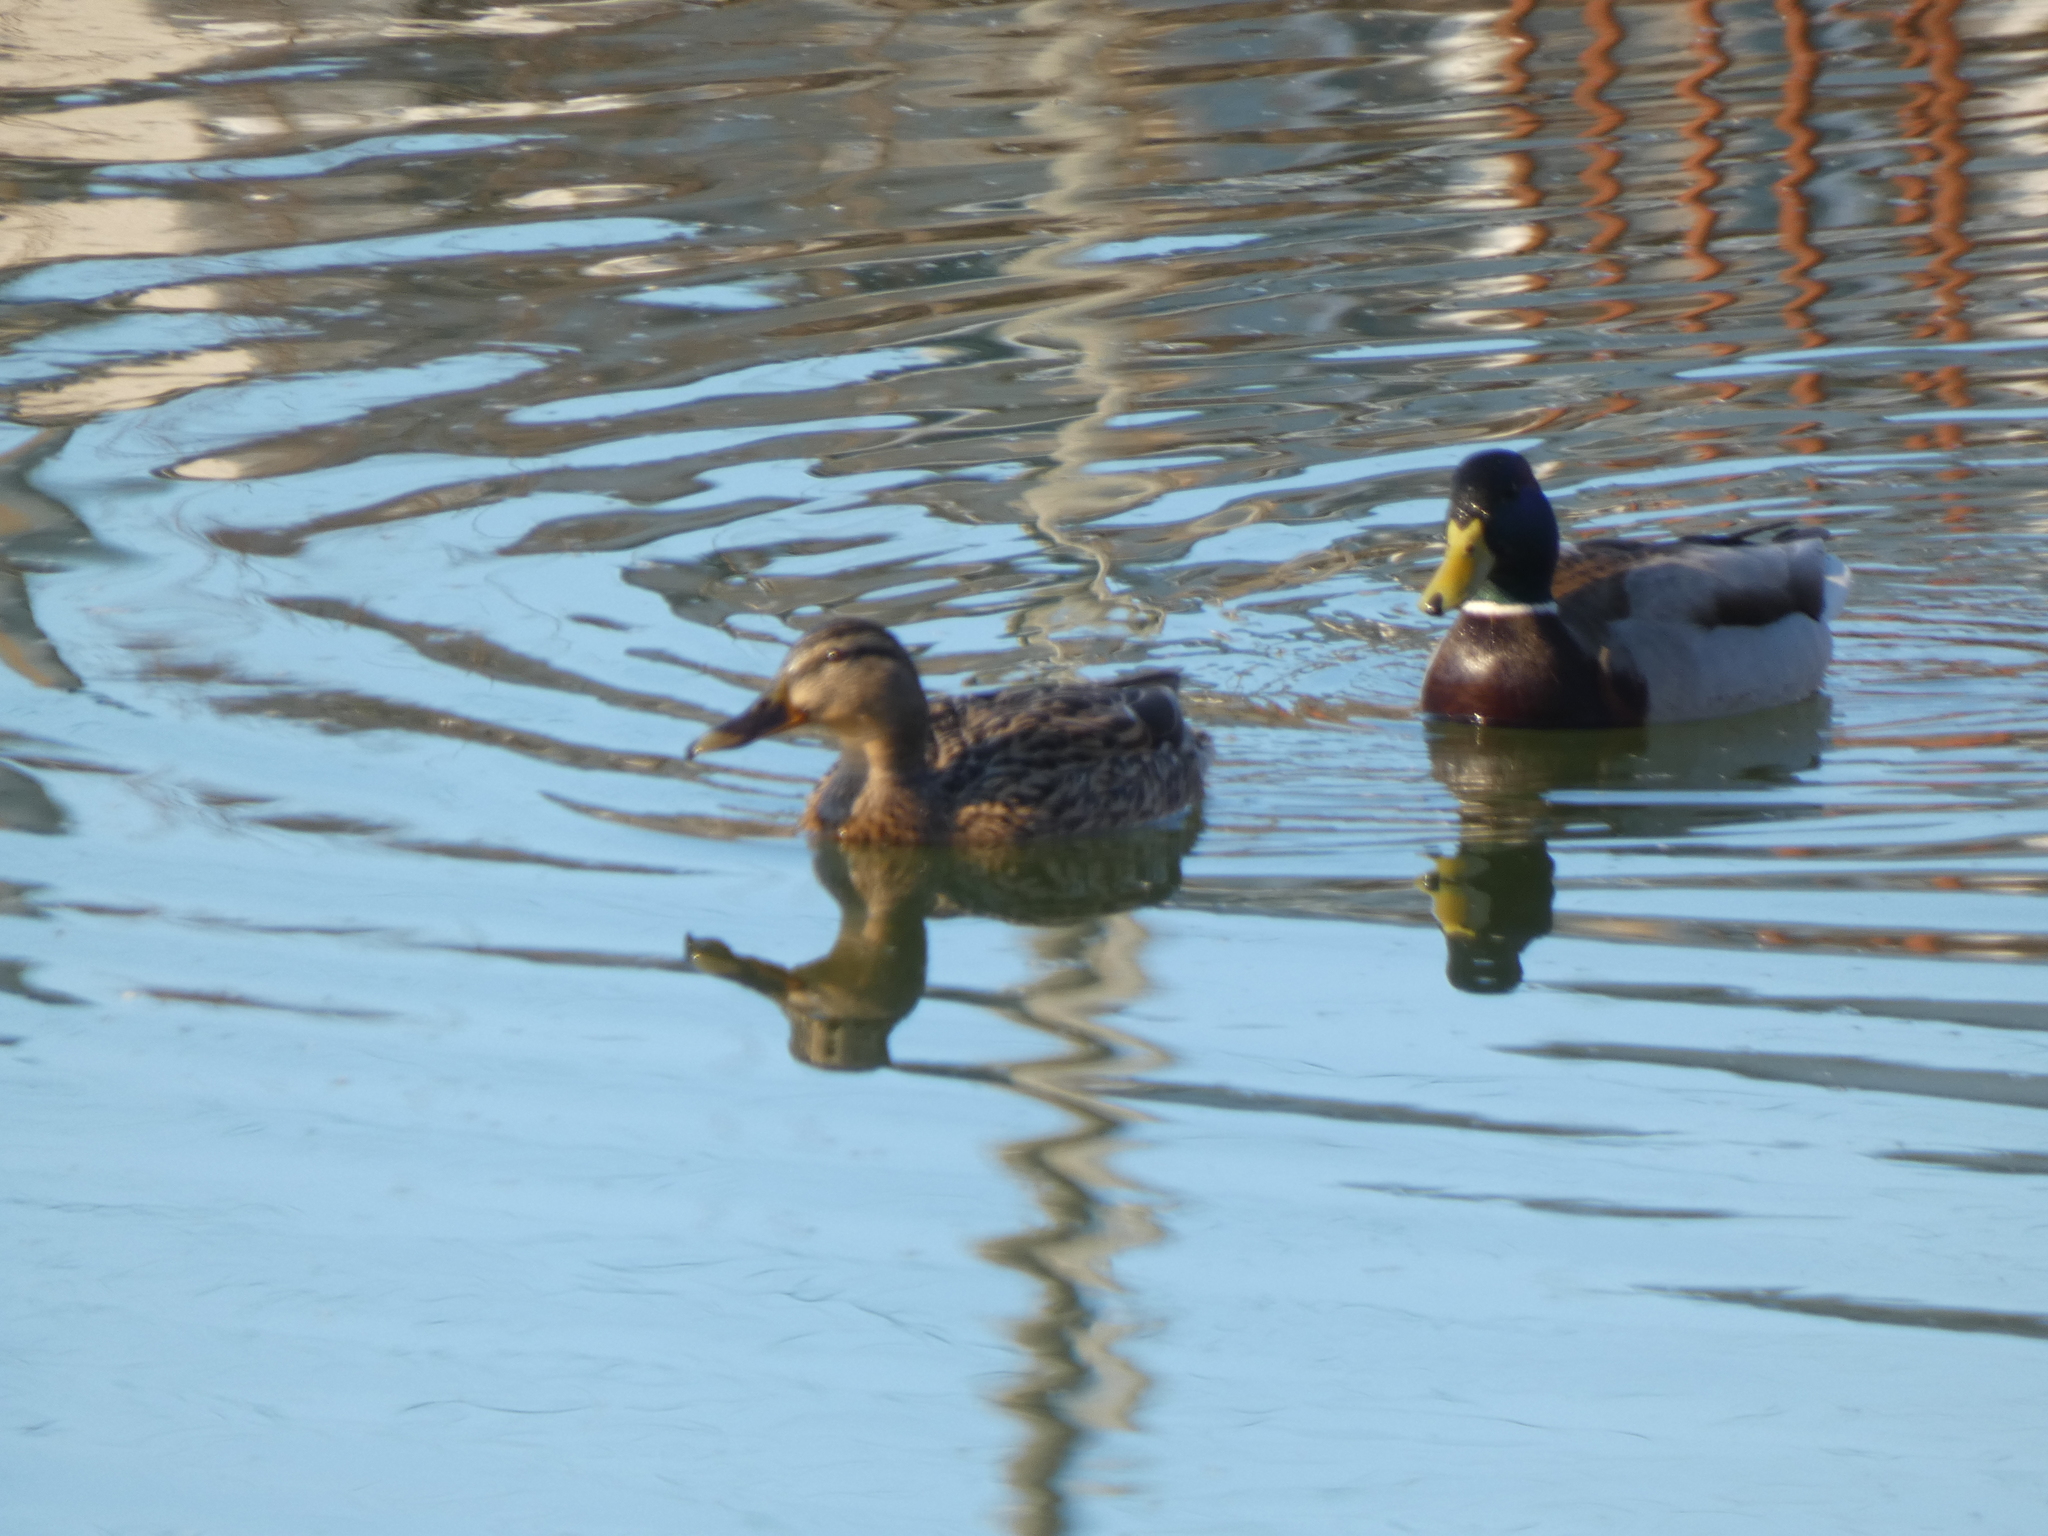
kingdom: Animalia
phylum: Chordata
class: Aves
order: Anseriformes
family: Anatidae
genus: Anas
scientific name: Anas platyrhynchos
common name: Mallard
